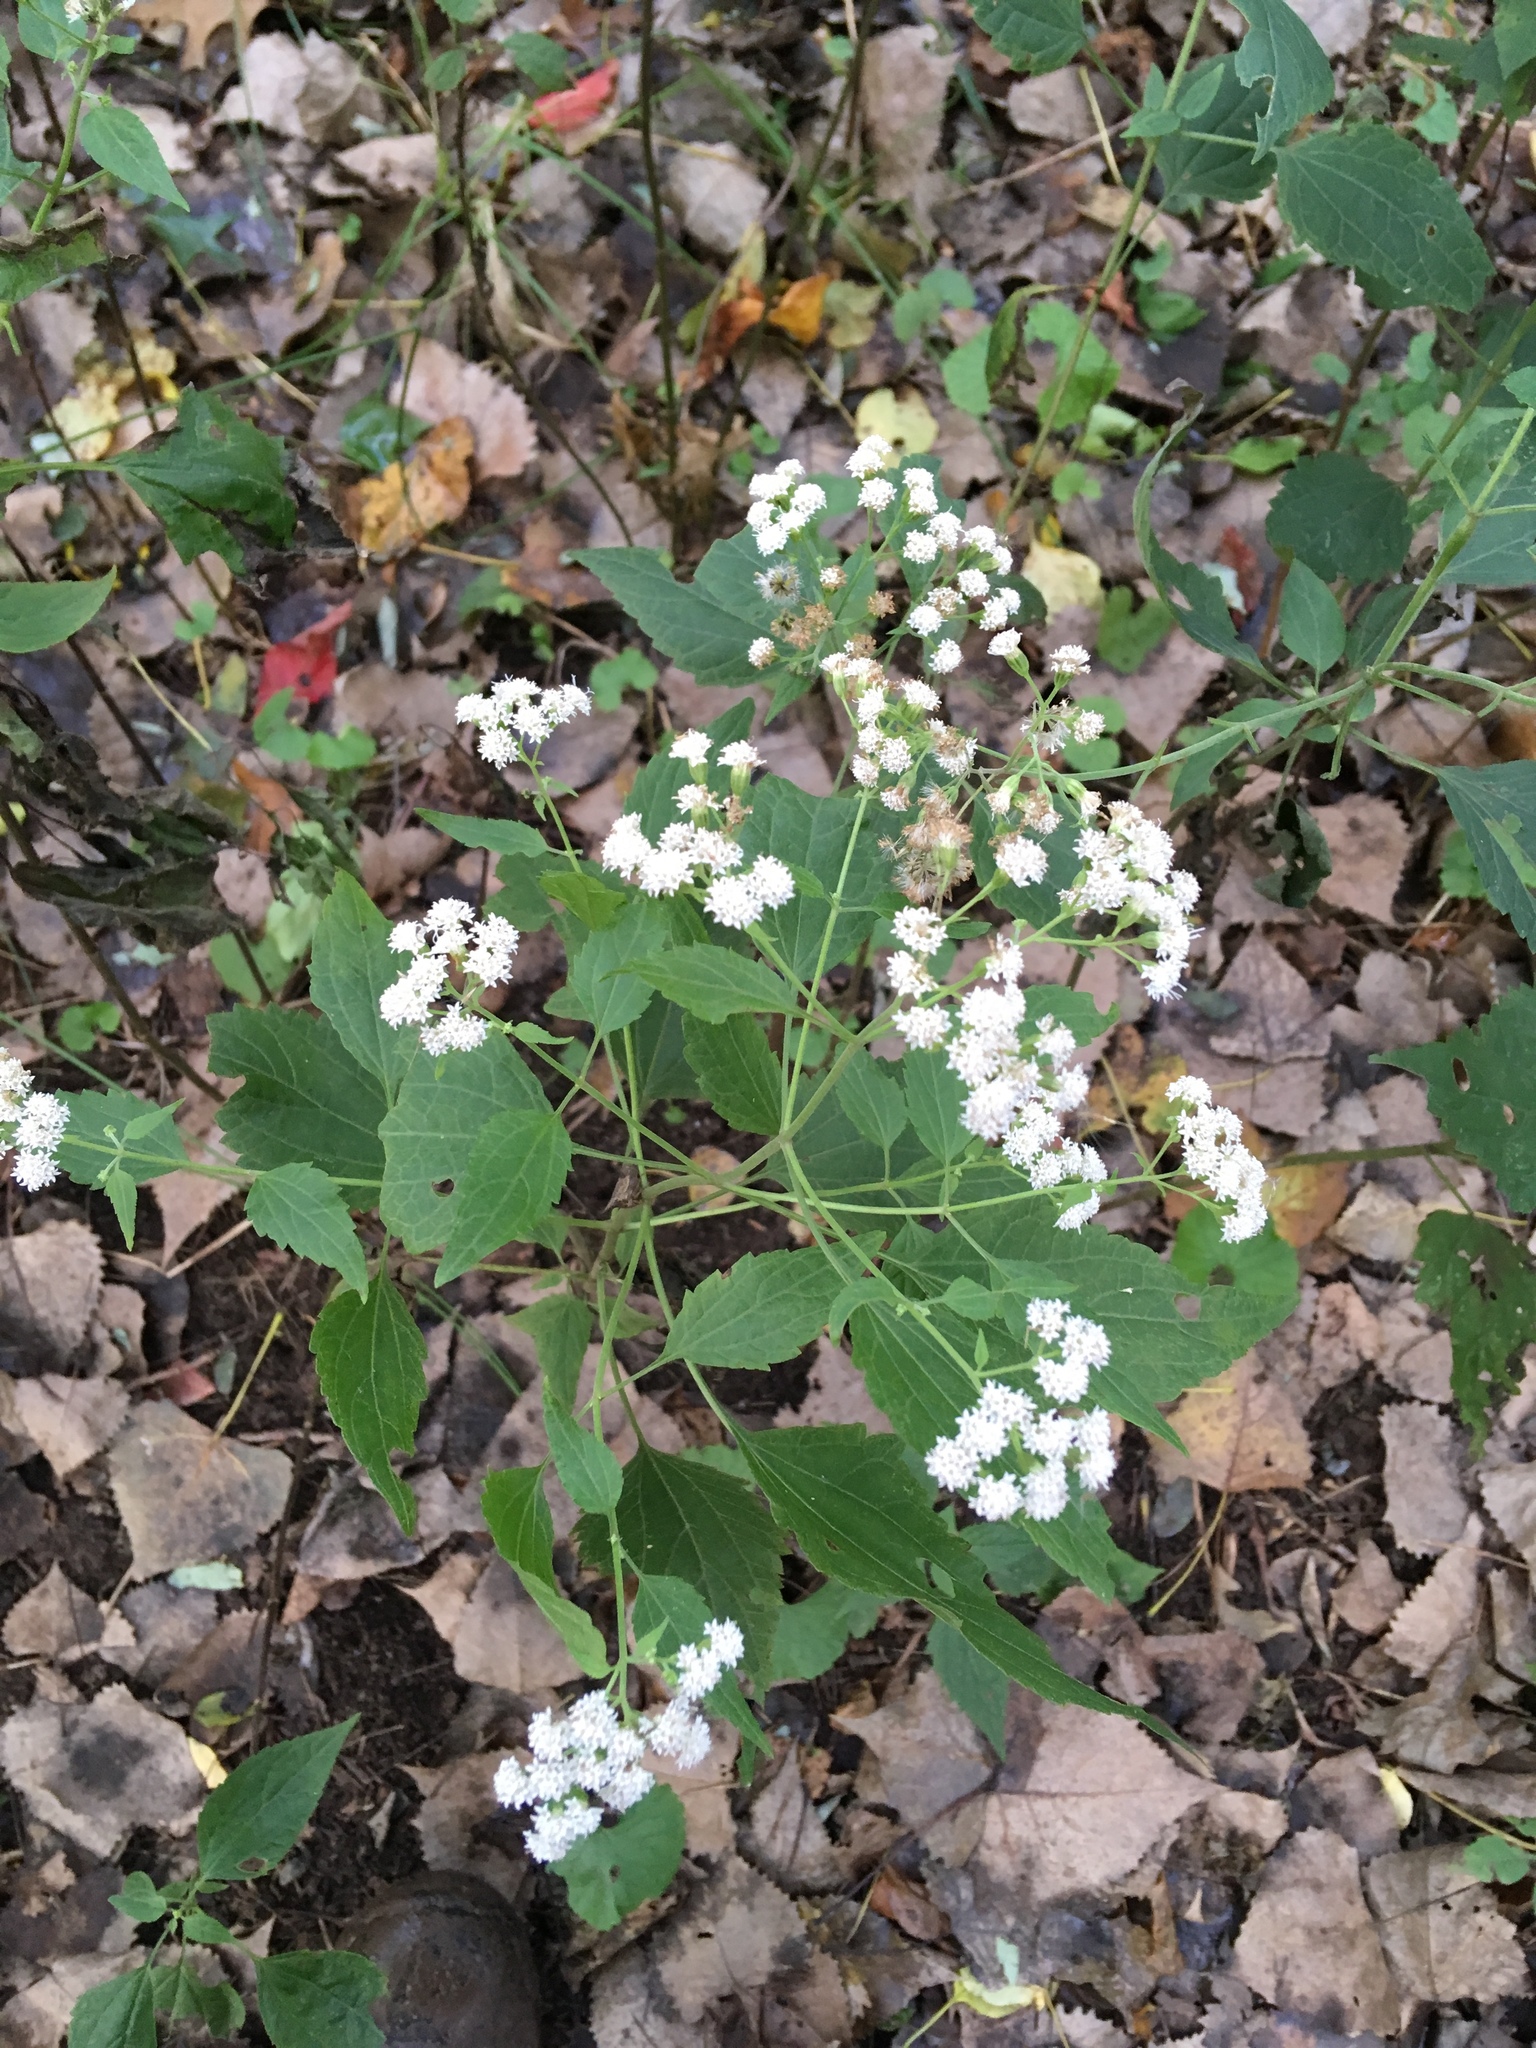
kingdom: Plantae
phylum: Tracheophyta
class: Magnoliopsida
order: Asterales
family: Asteraceae
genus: Ageratina
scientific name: Ageratina altissima
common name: White snakeroot
